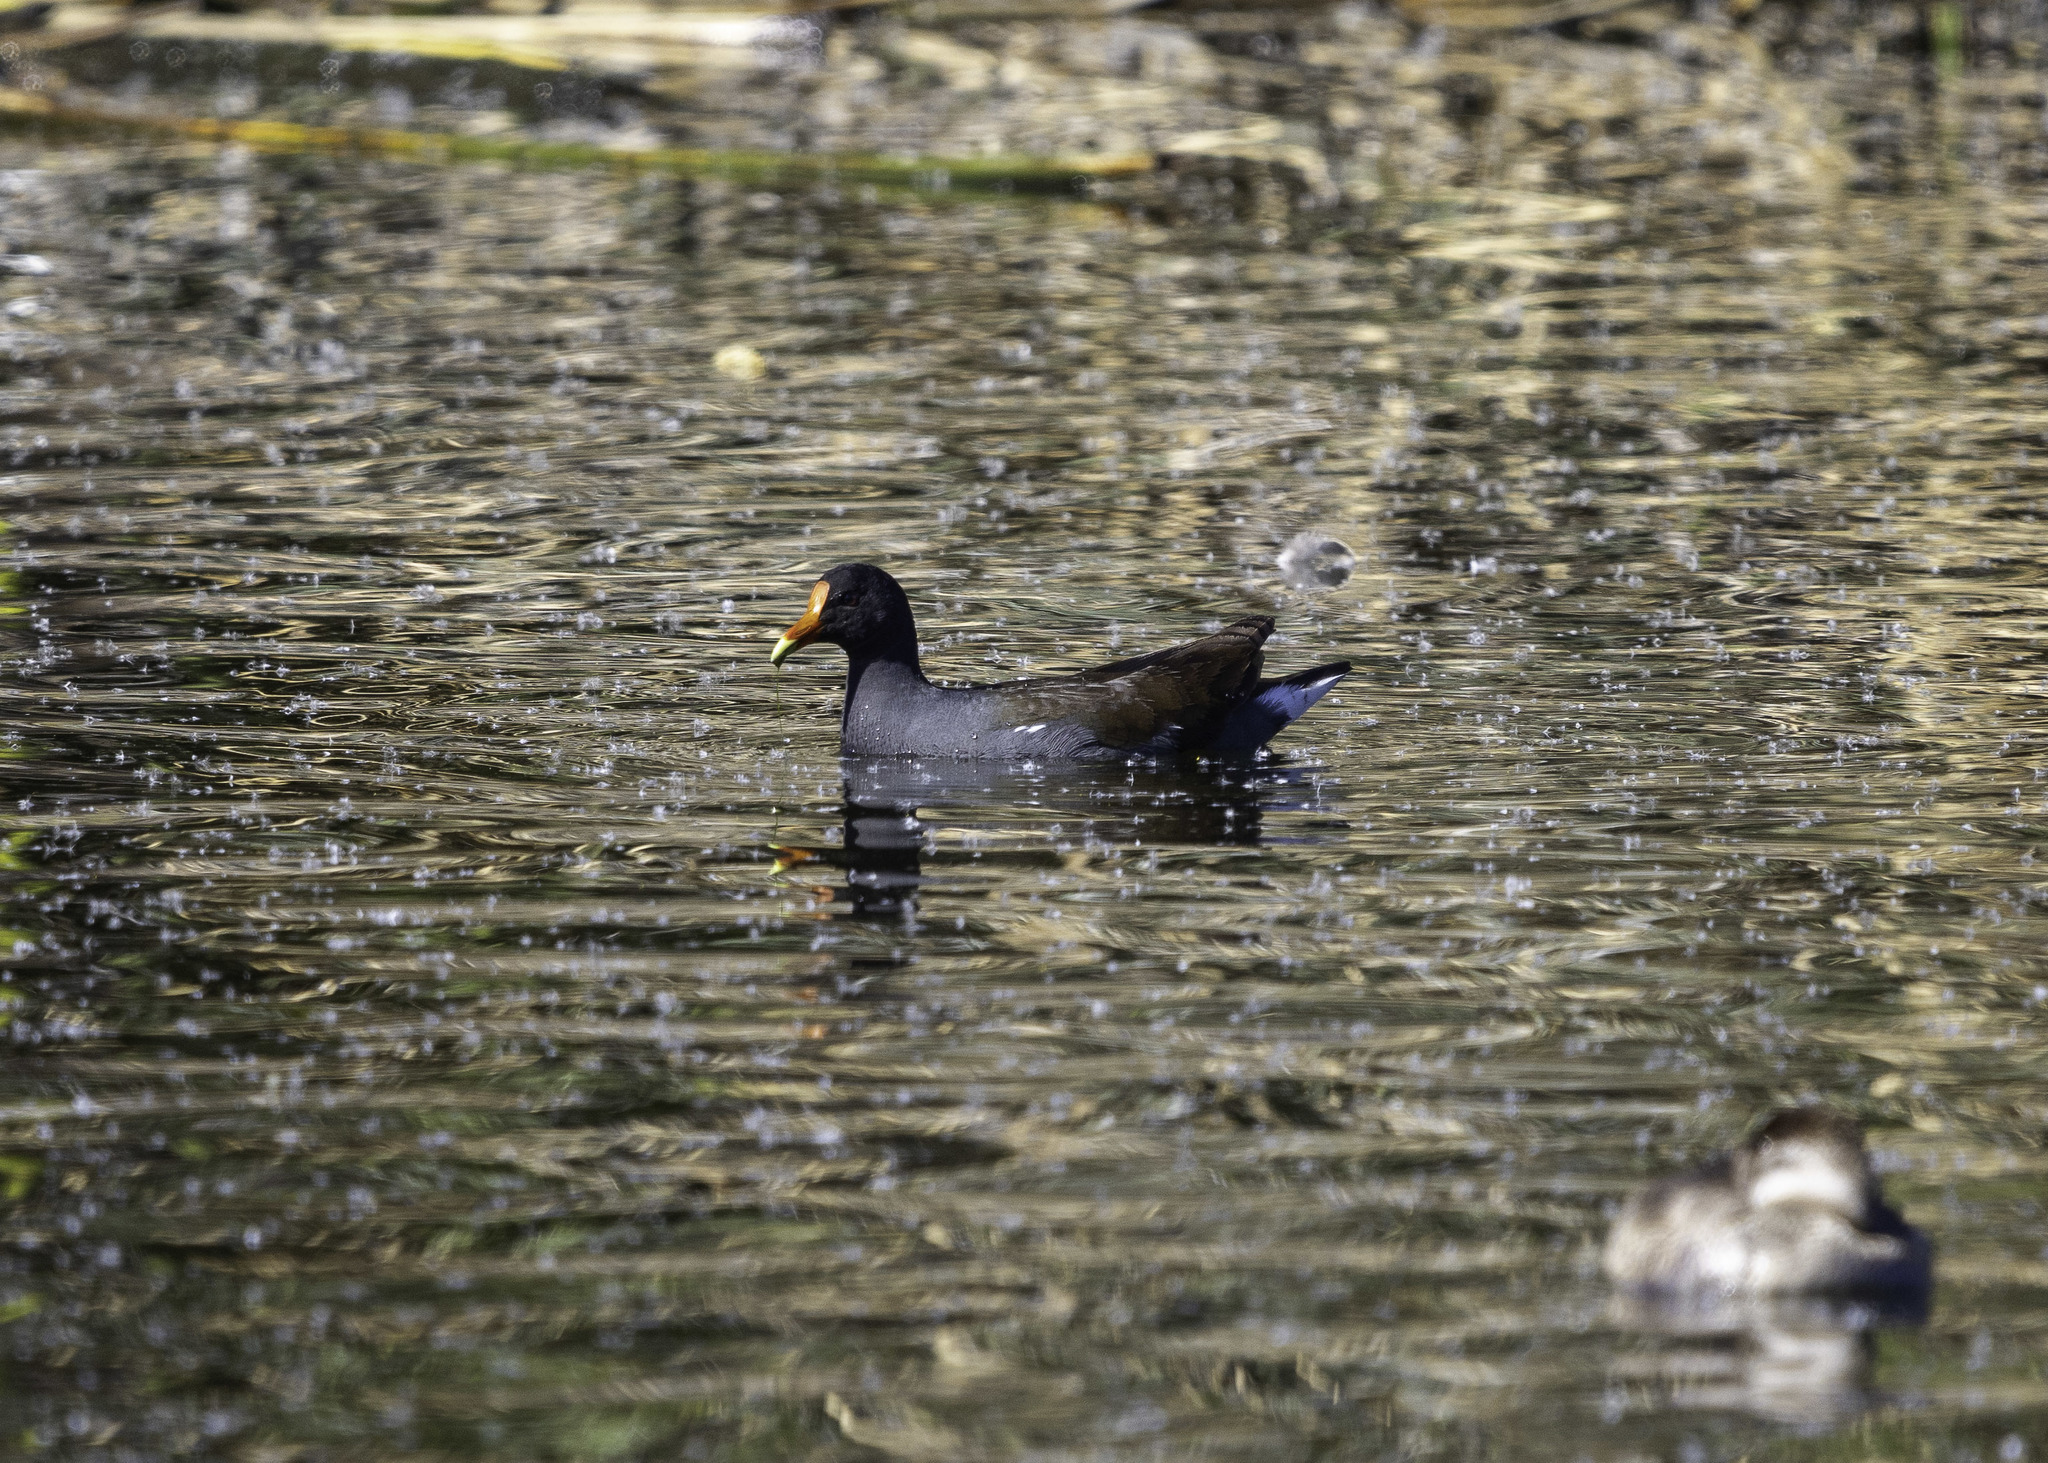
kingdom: Animalia
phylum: Chordata
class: Aves
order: Gruiformes
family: Rallidae
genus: Gallinula
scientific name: Gallinula chloropus
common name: Common moorhen
